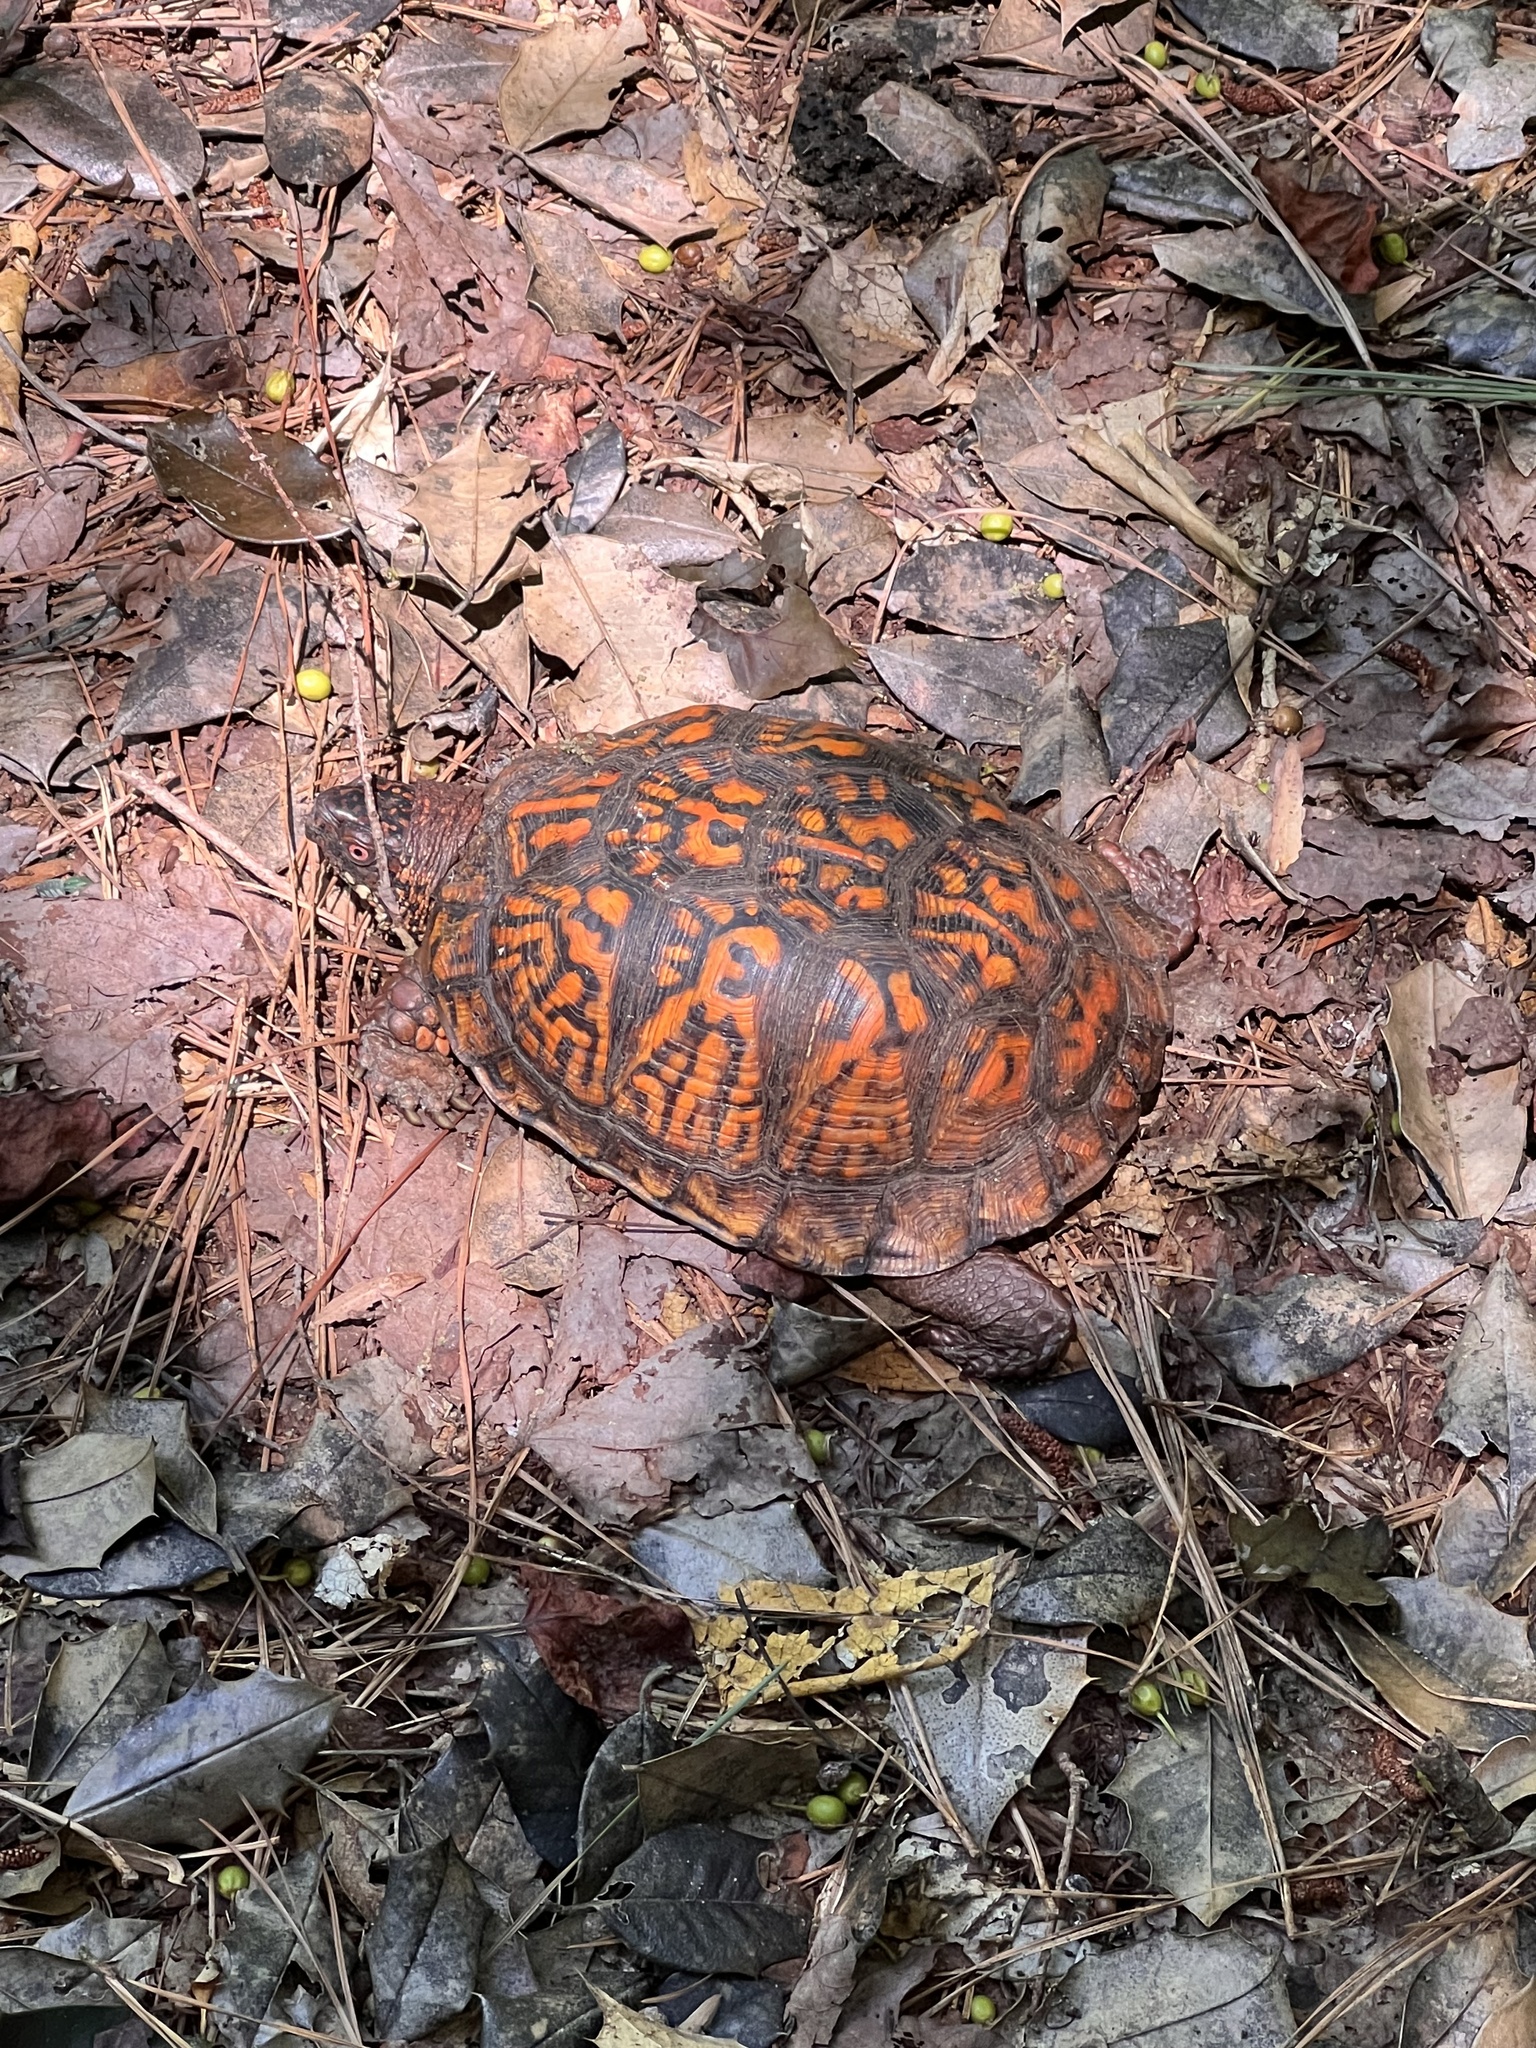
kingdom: Animalia
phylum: Chordata
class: Testudines
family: Emydidae
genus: Terrapene
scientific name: Terrapene carolina
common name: Common box turtle
